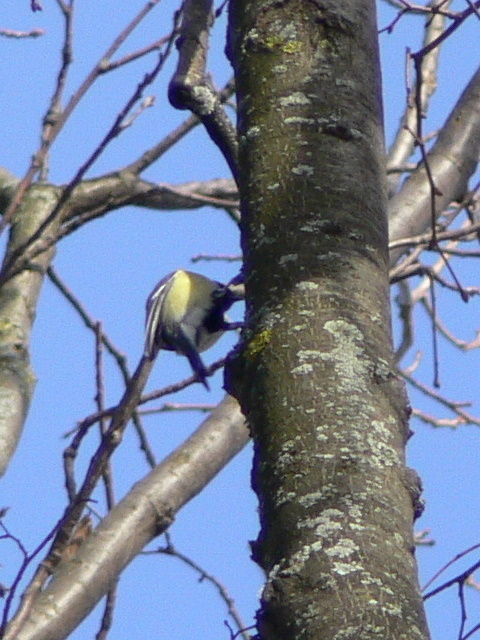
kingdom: Animalia
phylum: Chordata
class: Aves
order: Passeriformes
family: Paridae
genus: Parus
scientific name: Parus major
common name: Great tit
